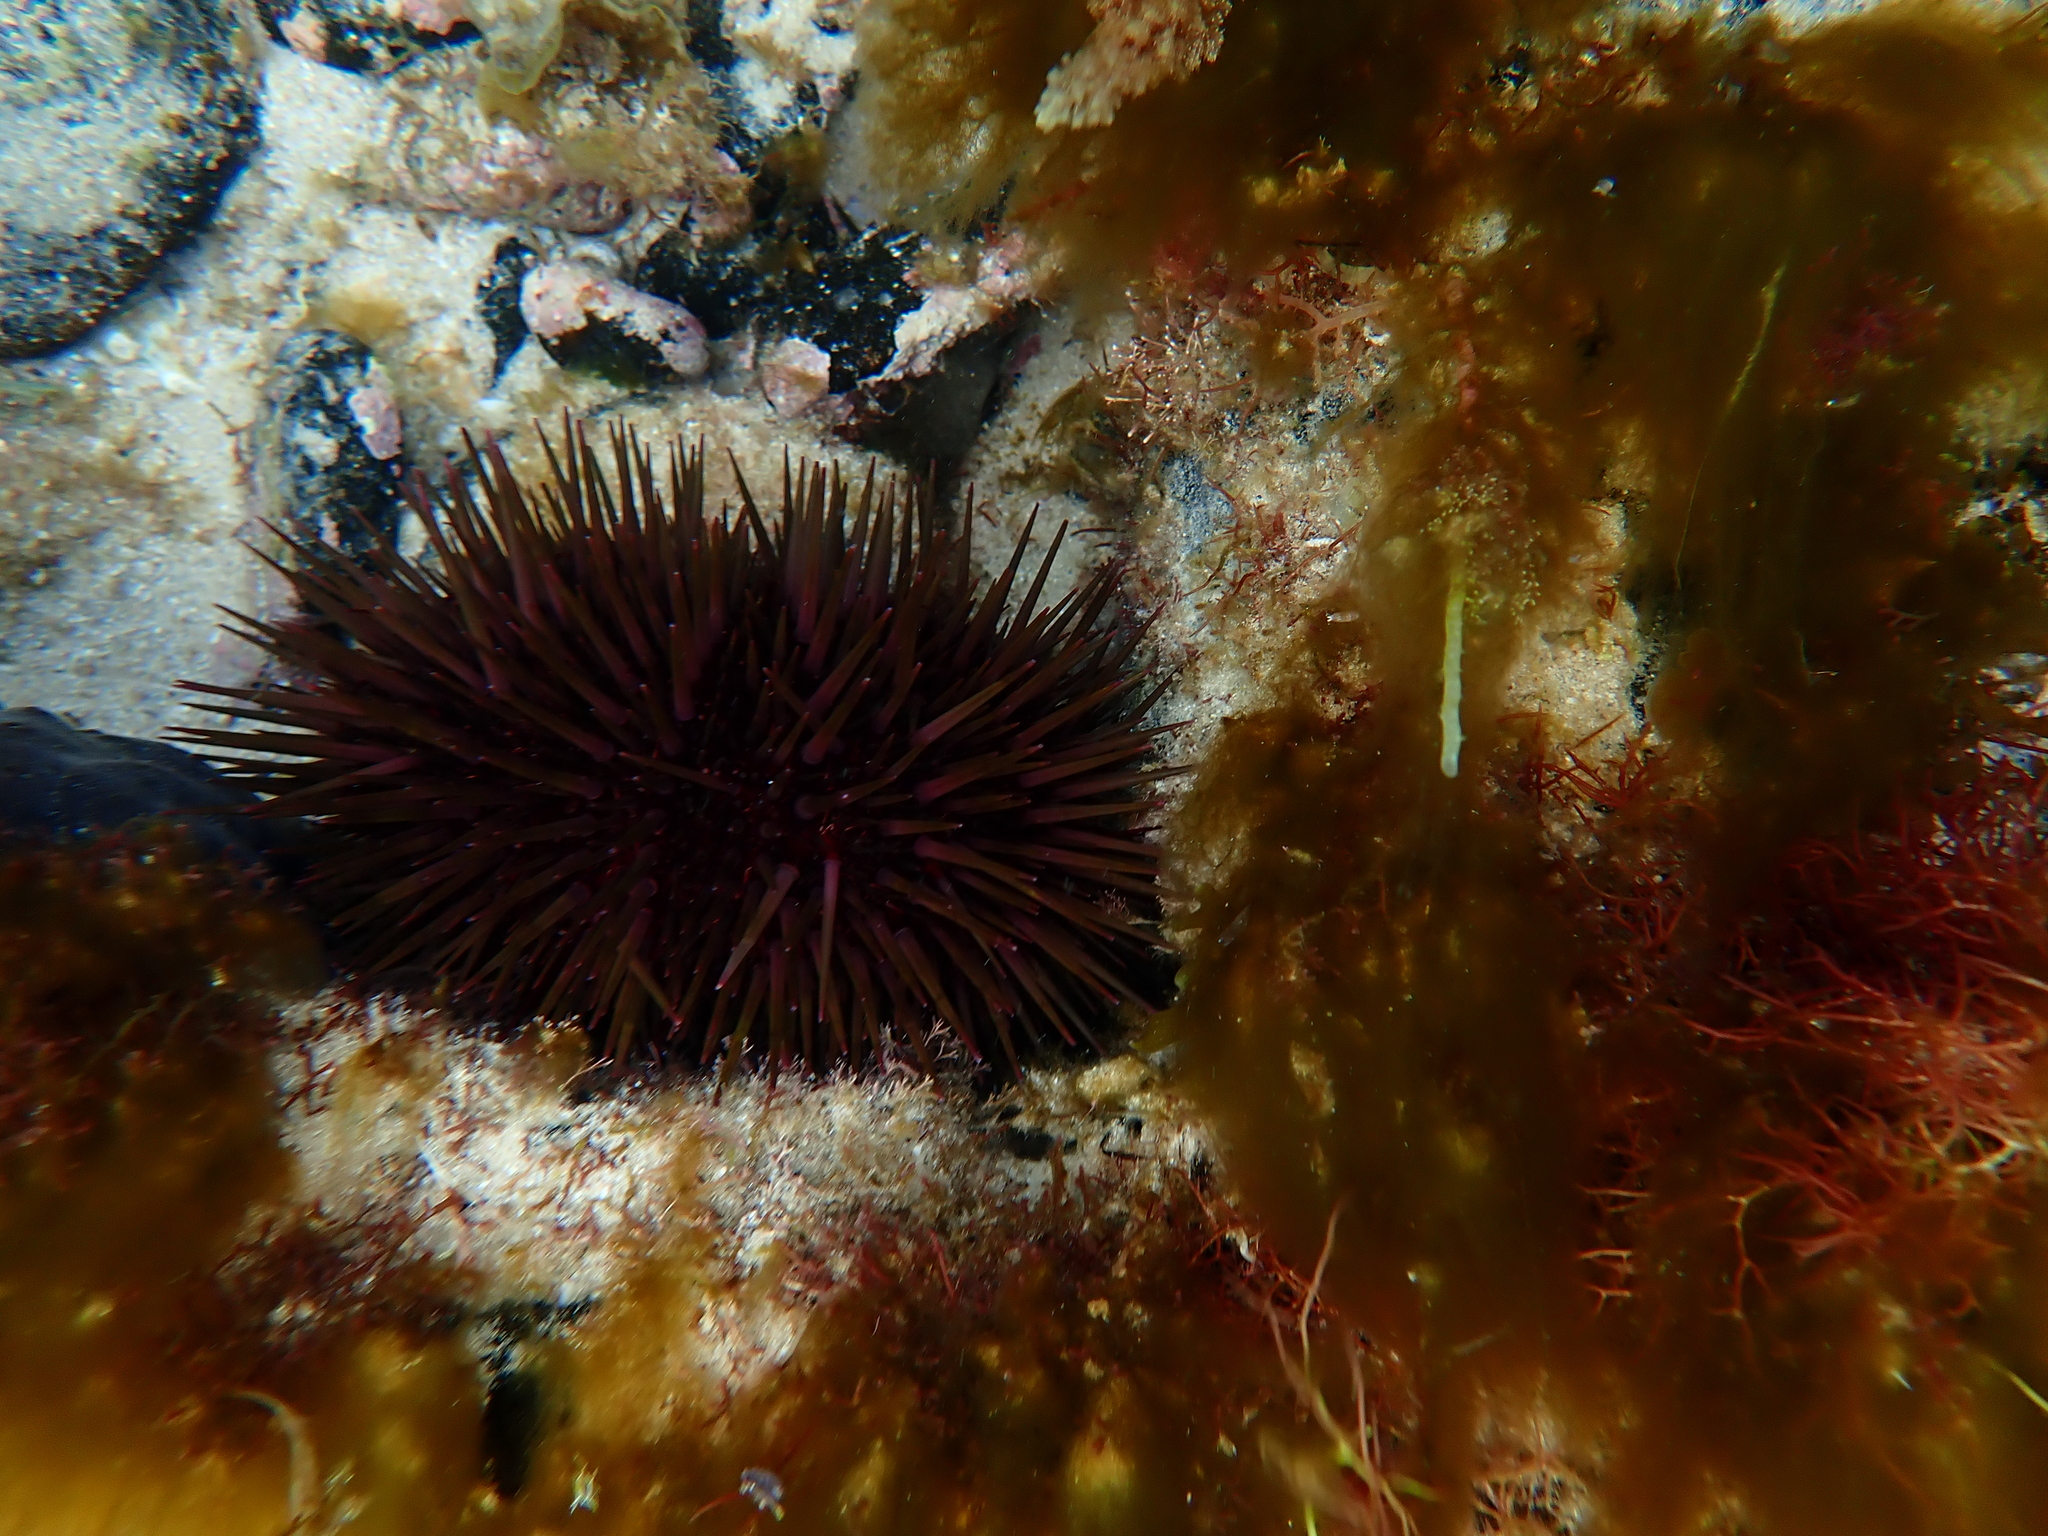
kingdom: Animalia
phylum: Echinodermata
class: Echinoidea
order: Camarodonta
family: Echinometridae
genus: Heliocidaris
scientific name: Heliocidaris erythrogramma
